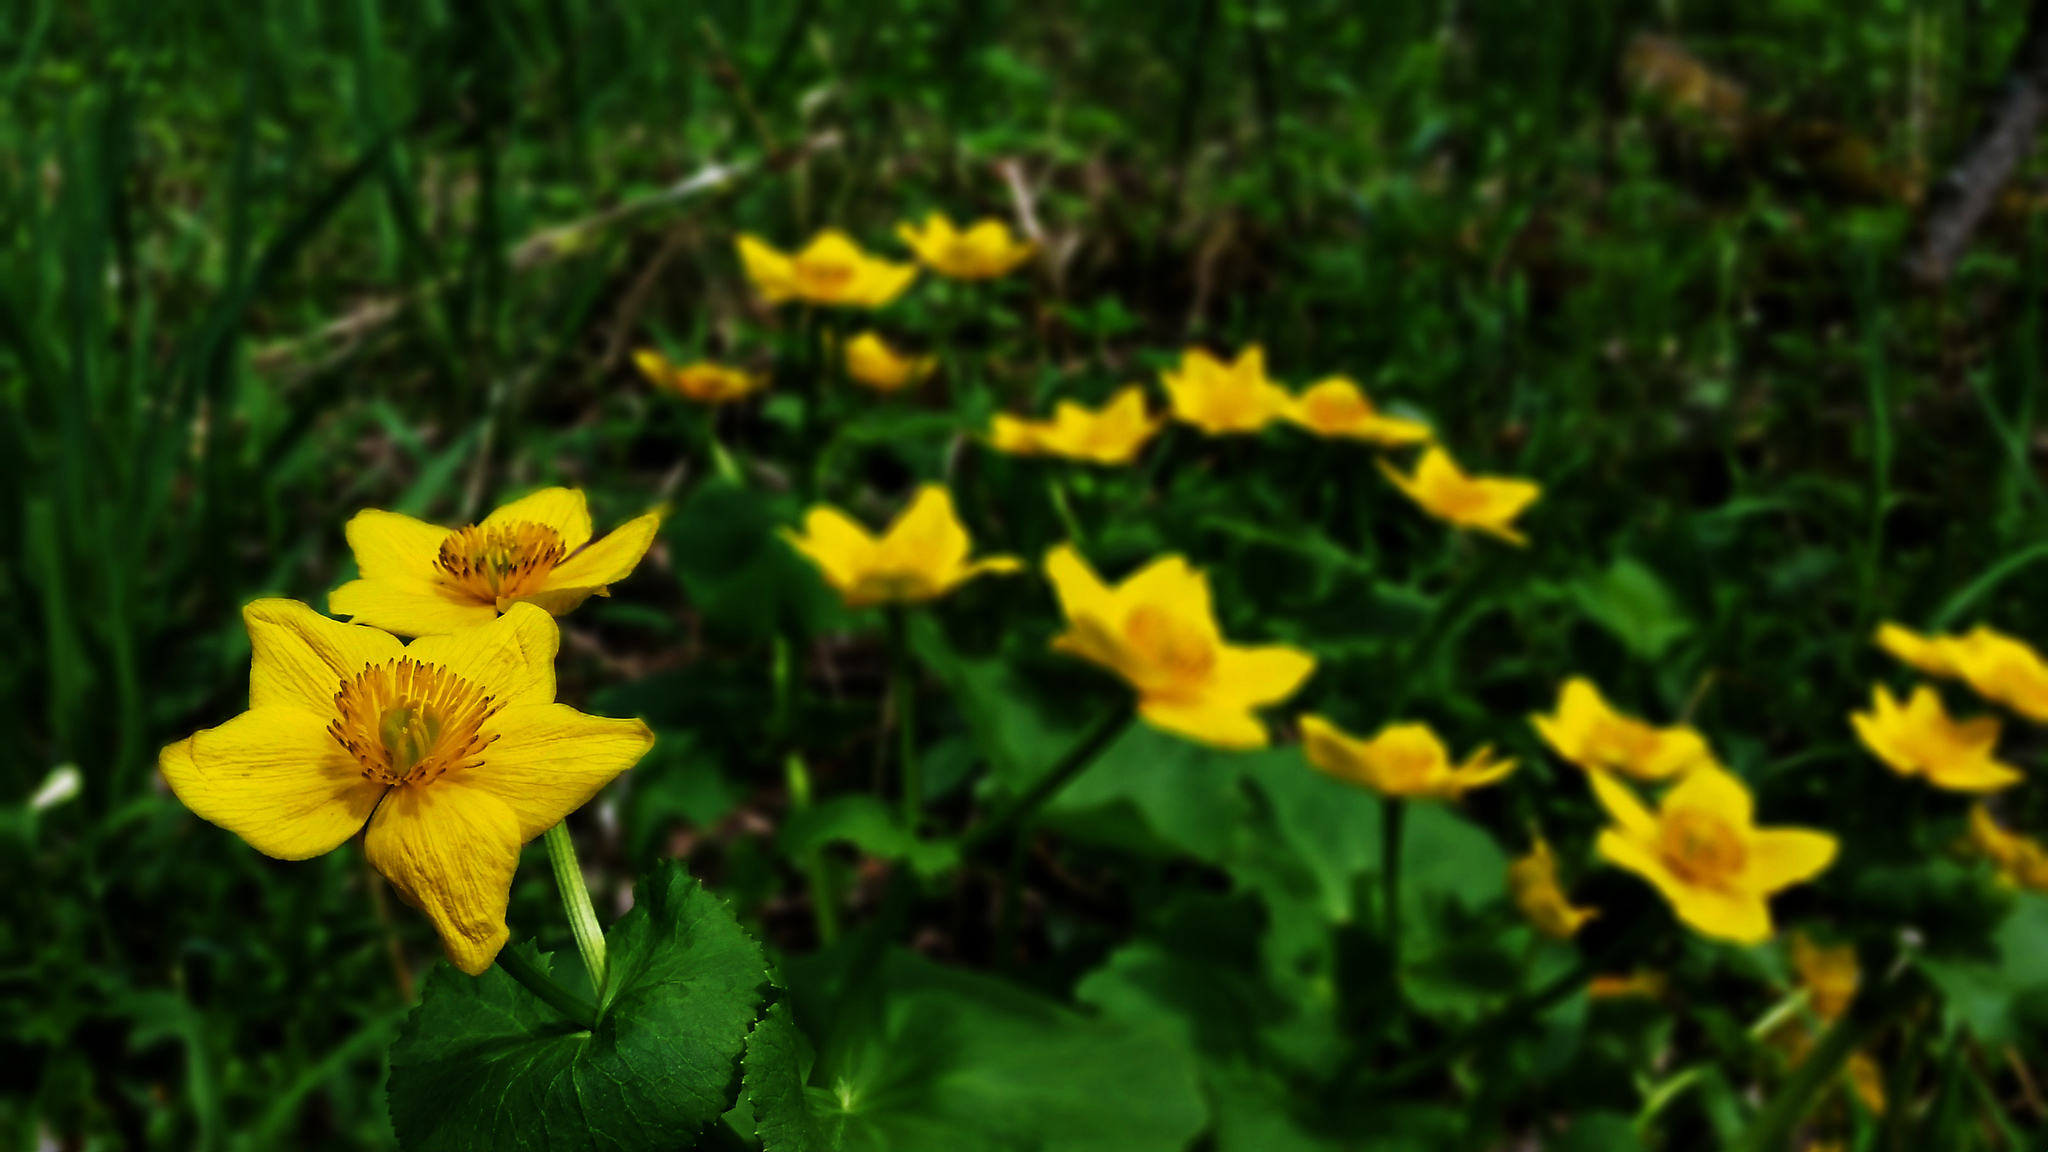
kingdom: Plantae
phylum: Tracheophyta
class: Magnoliopsida
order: Ranunculales
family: Ranunculaceae
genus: Caltha
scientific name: Caltha palustris
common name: Marsh marigold
